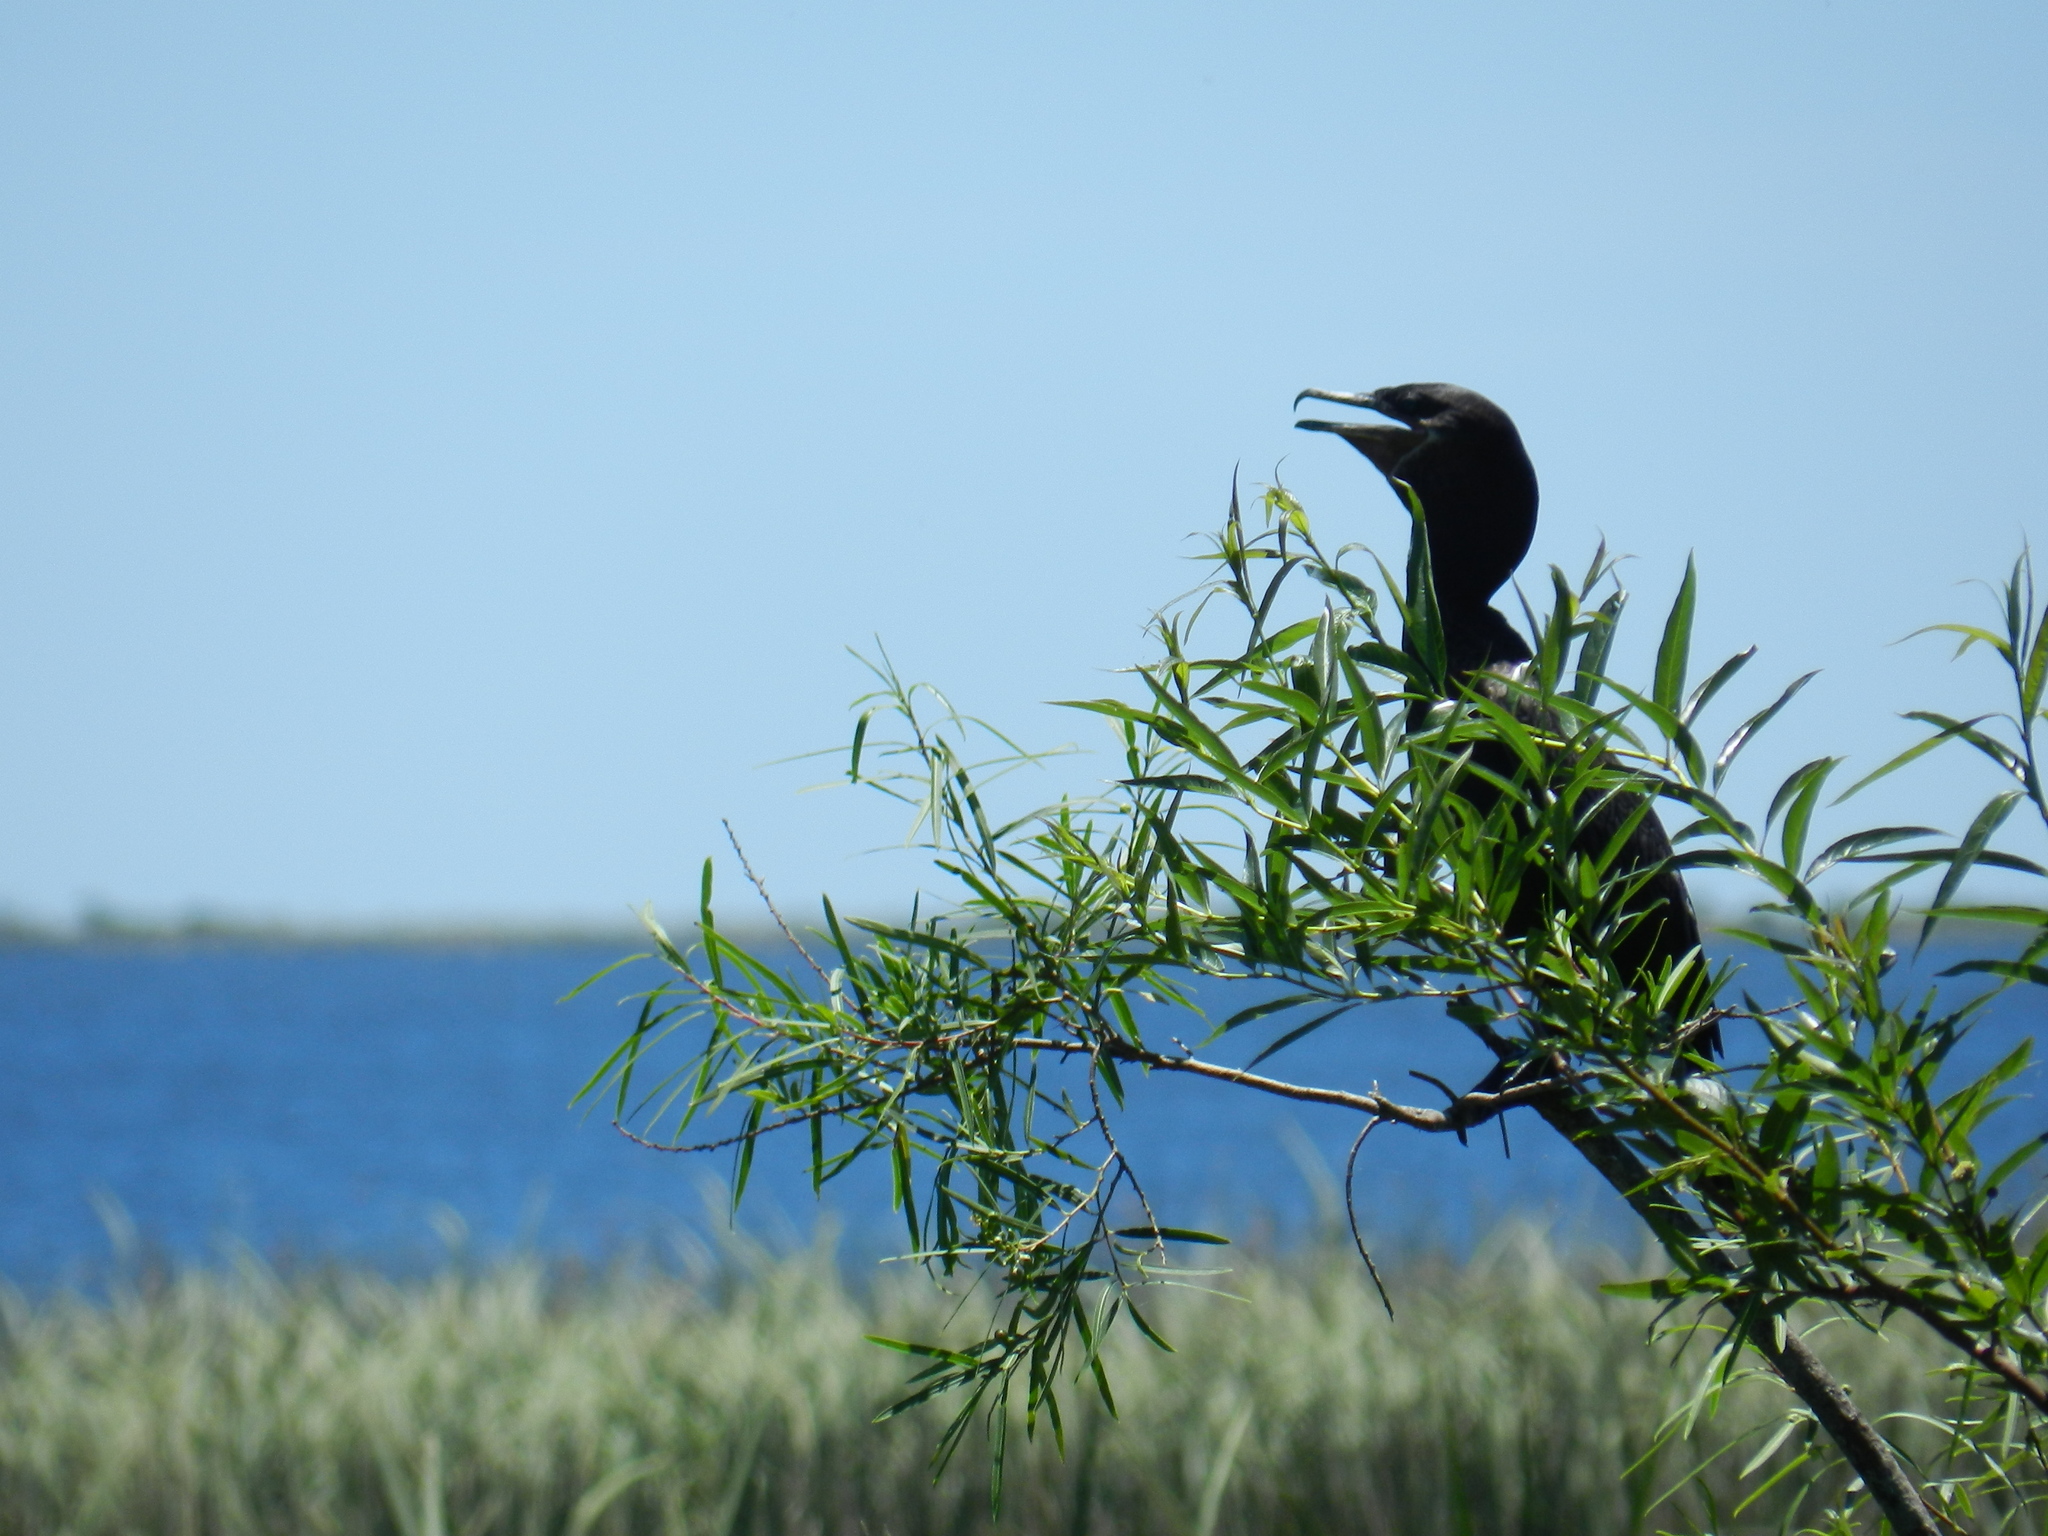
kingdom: Animalia
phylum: Chordata
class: Aves
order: Suliformes
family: Phalacrocoracidae
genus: Phalacrocorax
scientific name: Phalacrocorax brasilianus
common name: Neotropic cormorant
